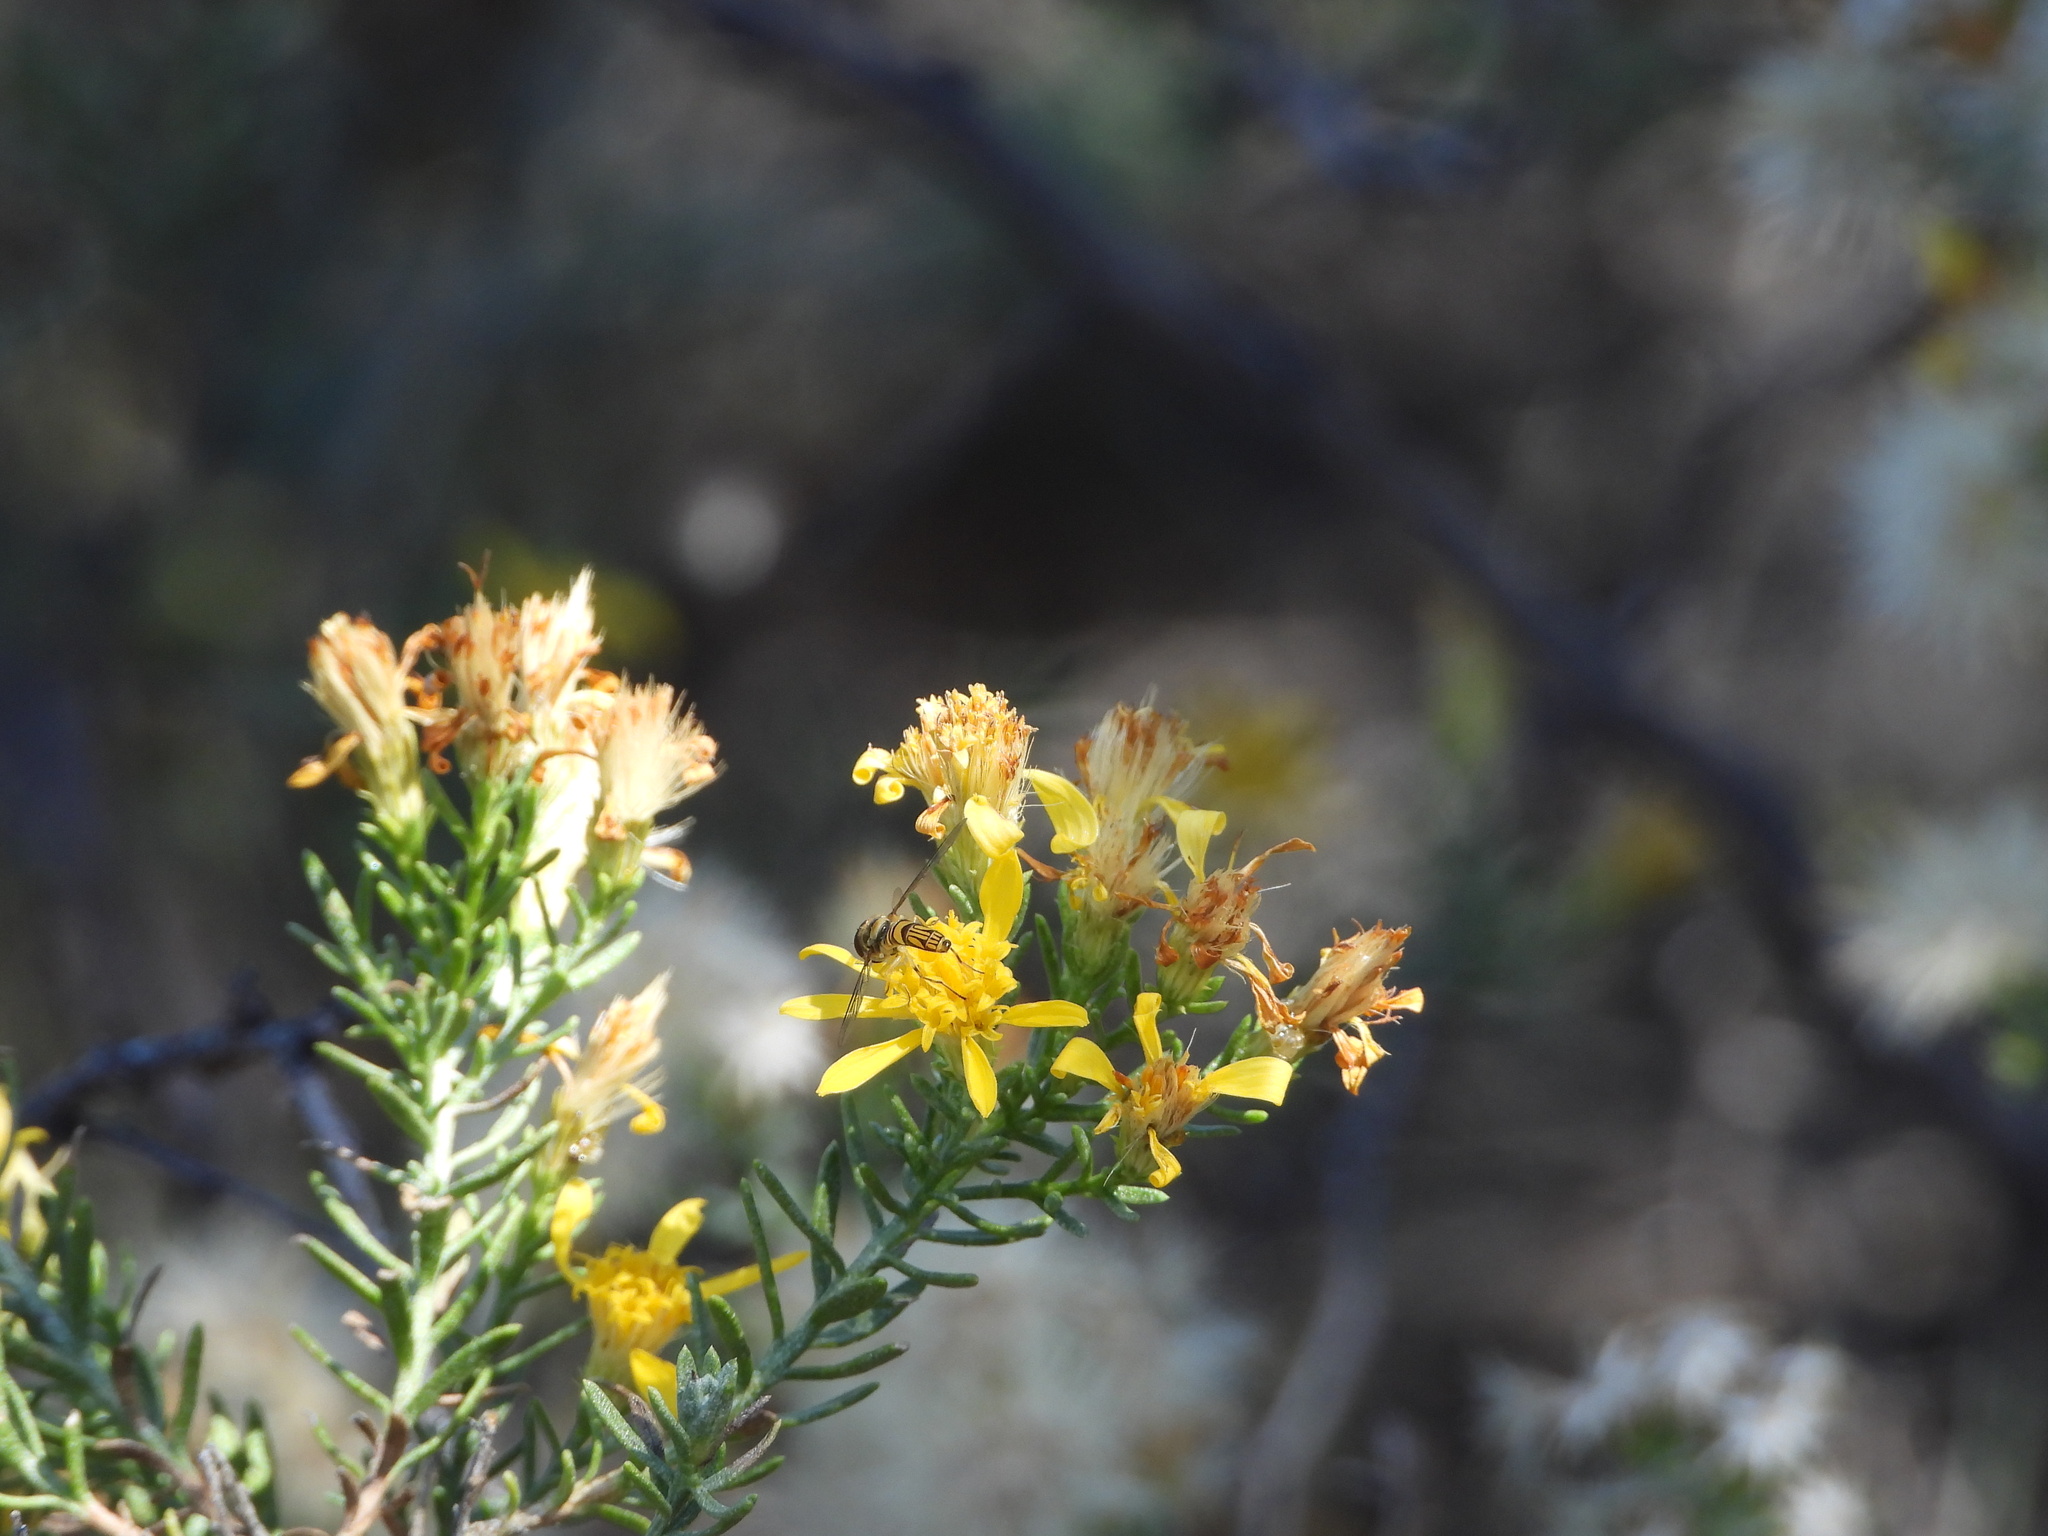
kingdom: Animalia
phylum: Arthropoda
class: Insecta
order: Diptera
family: Syrphidae
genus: Allograpta
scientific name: Allograpta obliqua
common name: Common oblique syrphid
